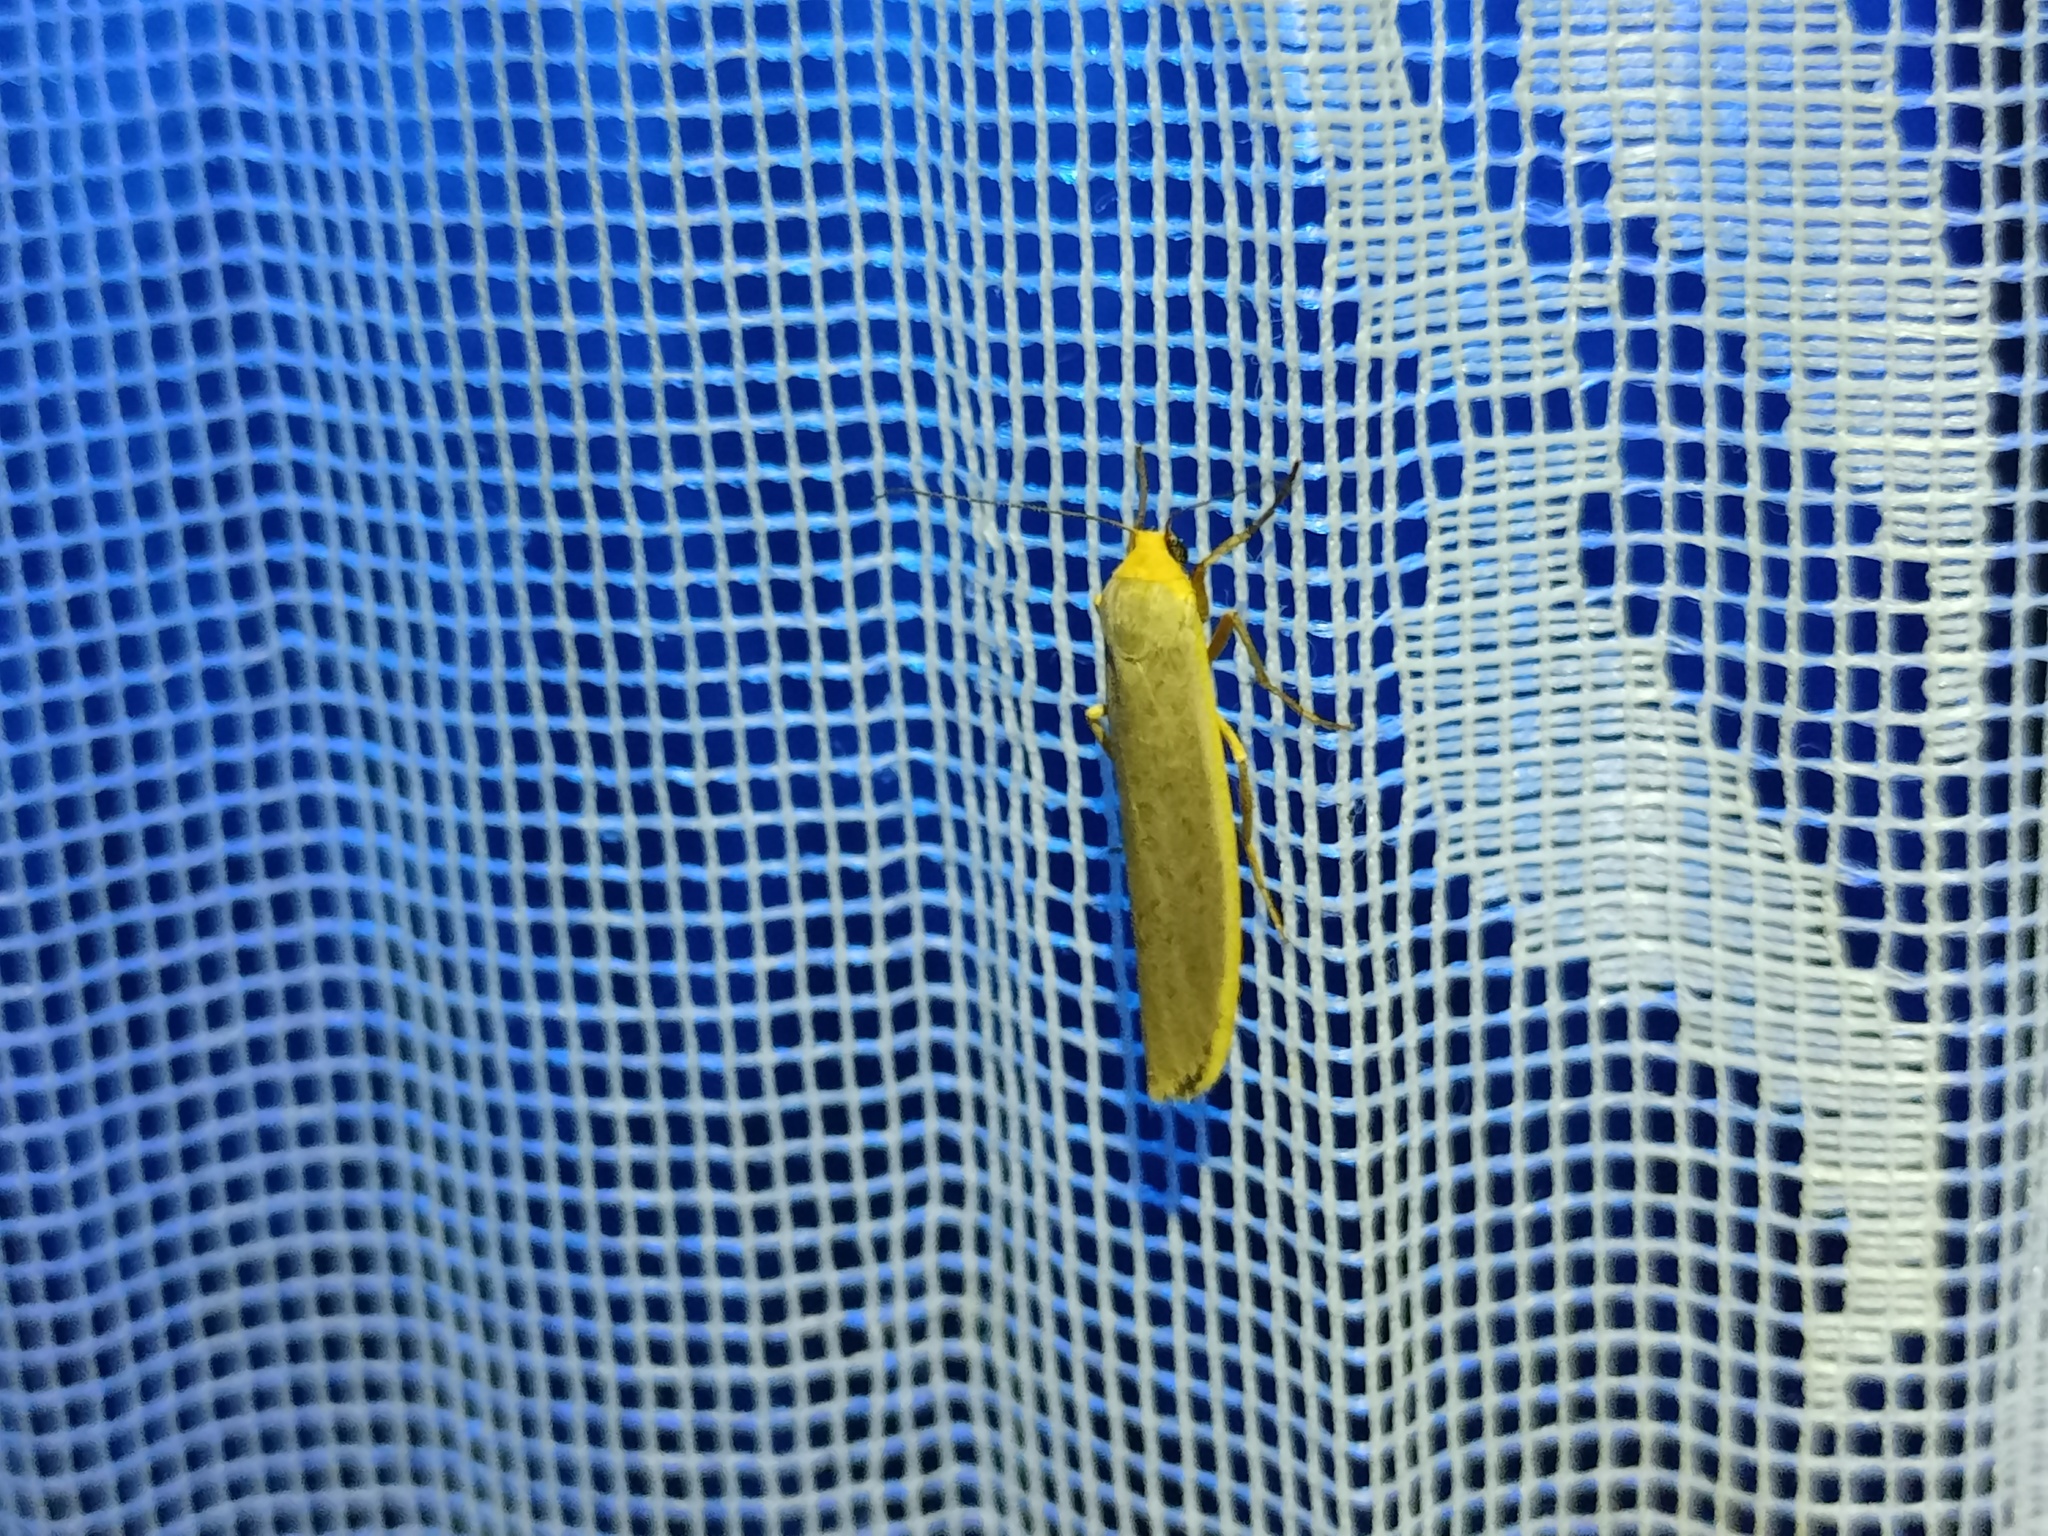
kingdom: Animalia
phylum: Arthropoda
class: Insecta
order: Lepidoptera
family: Erebidae
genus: Manulea
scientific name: Manulea complana
